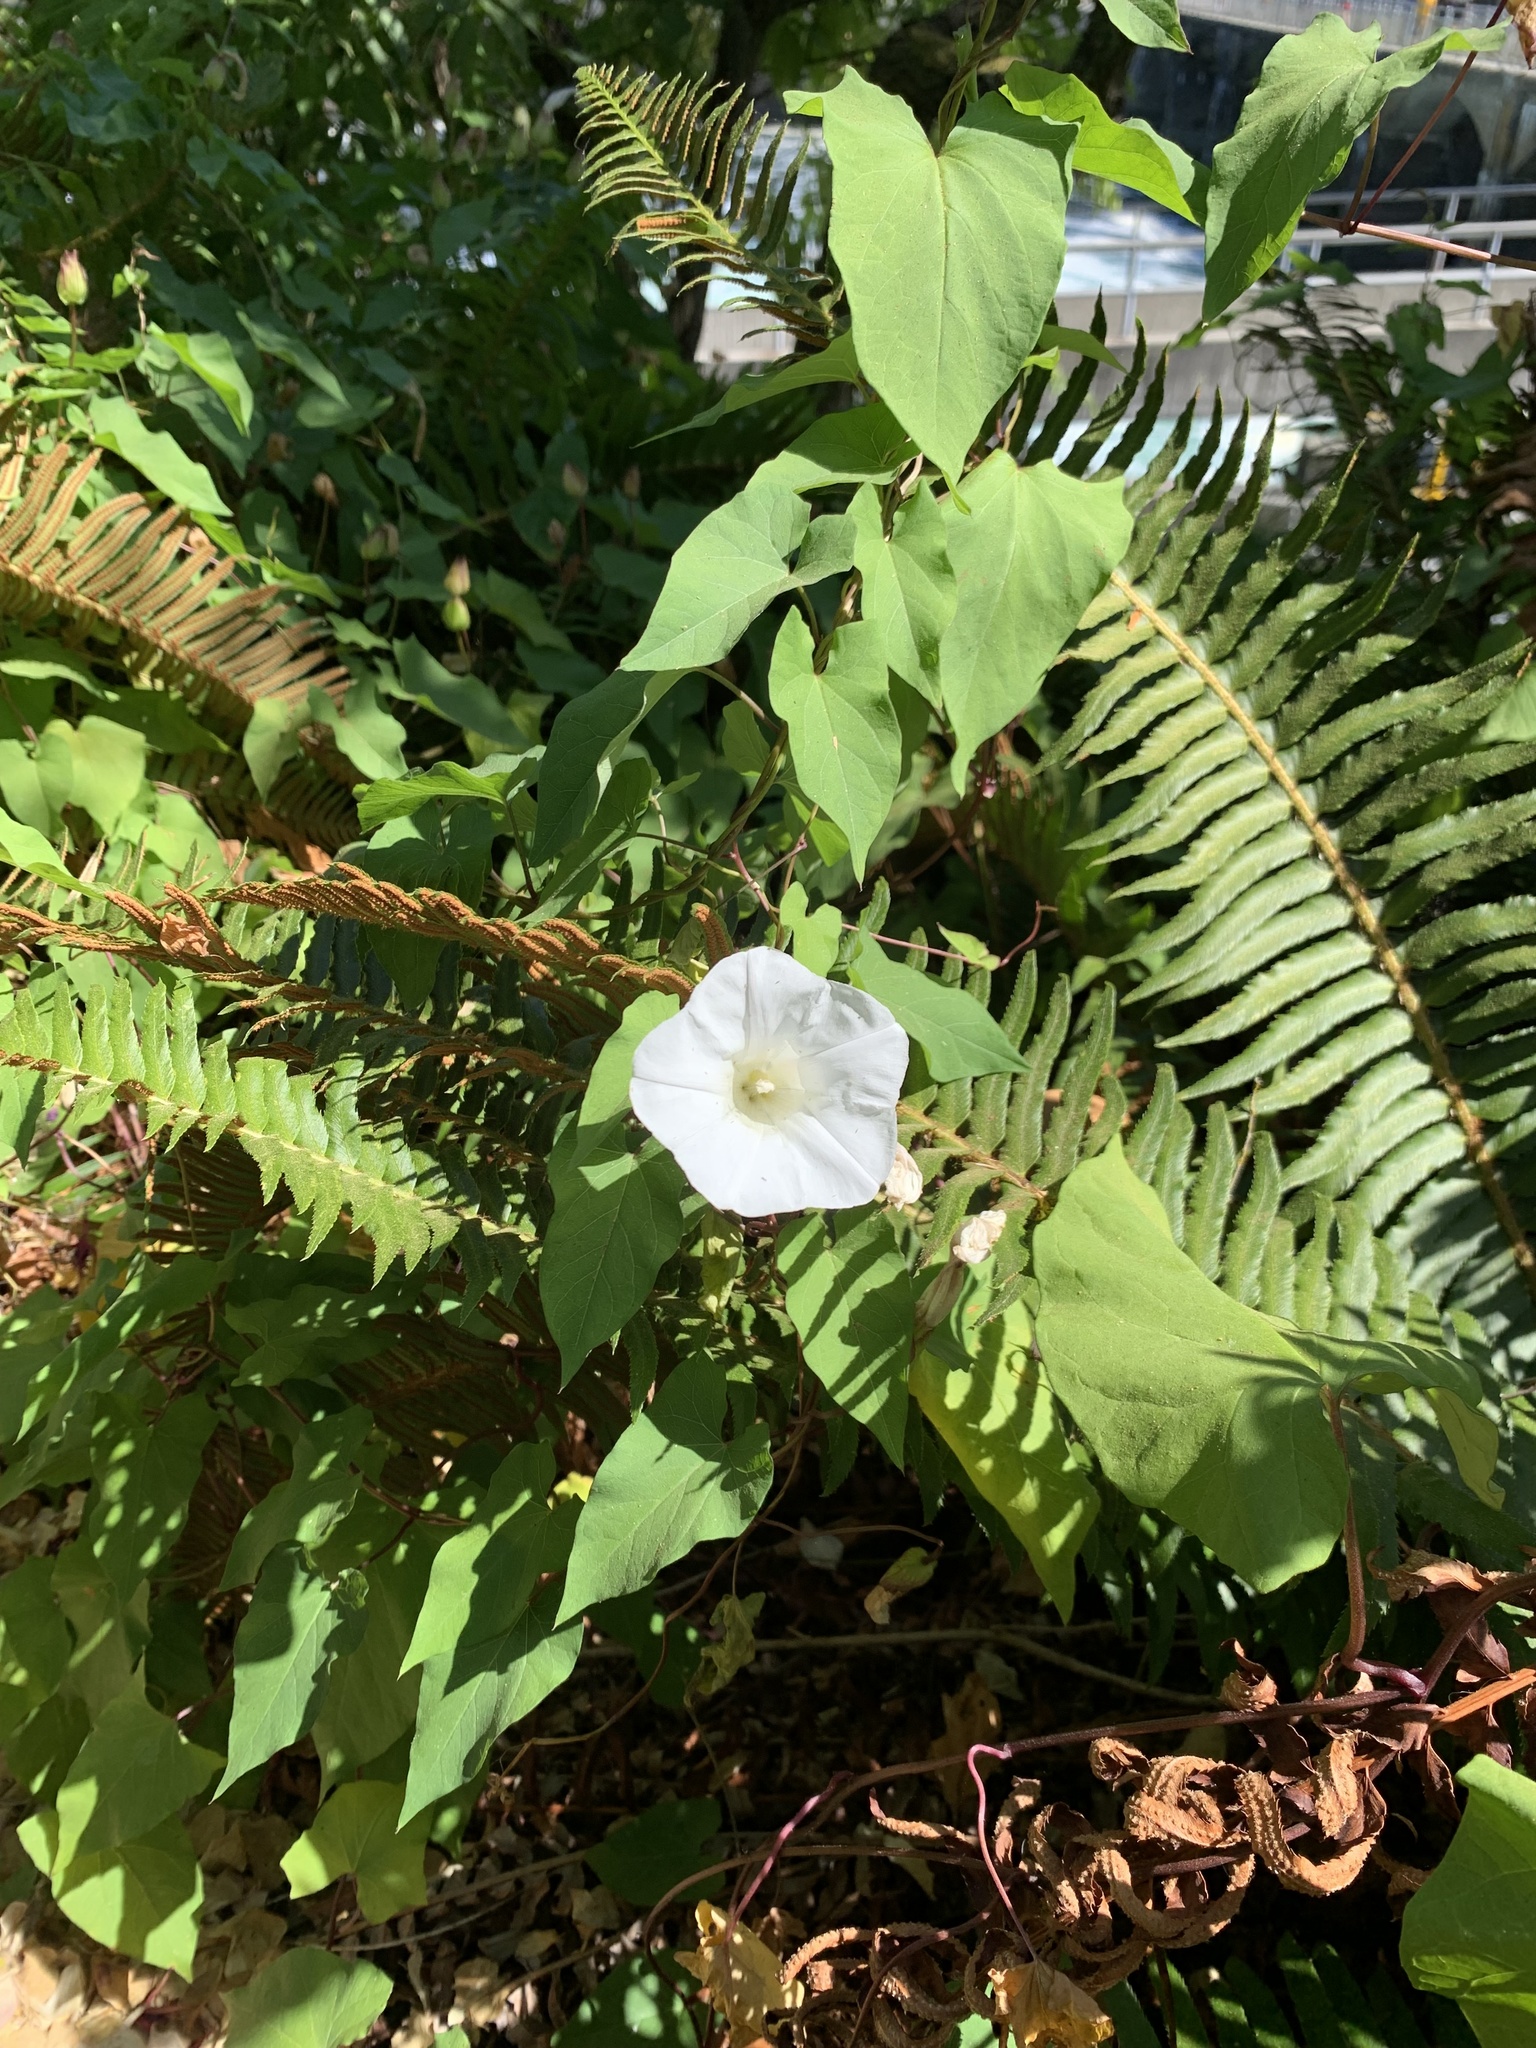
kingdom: Plantae
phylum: Tracheophyta
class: Magnoliopsida
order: Solanales
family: Convolvulaceae
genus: Calystegia
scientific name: Calystegia silvatica
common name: Large bindweed
